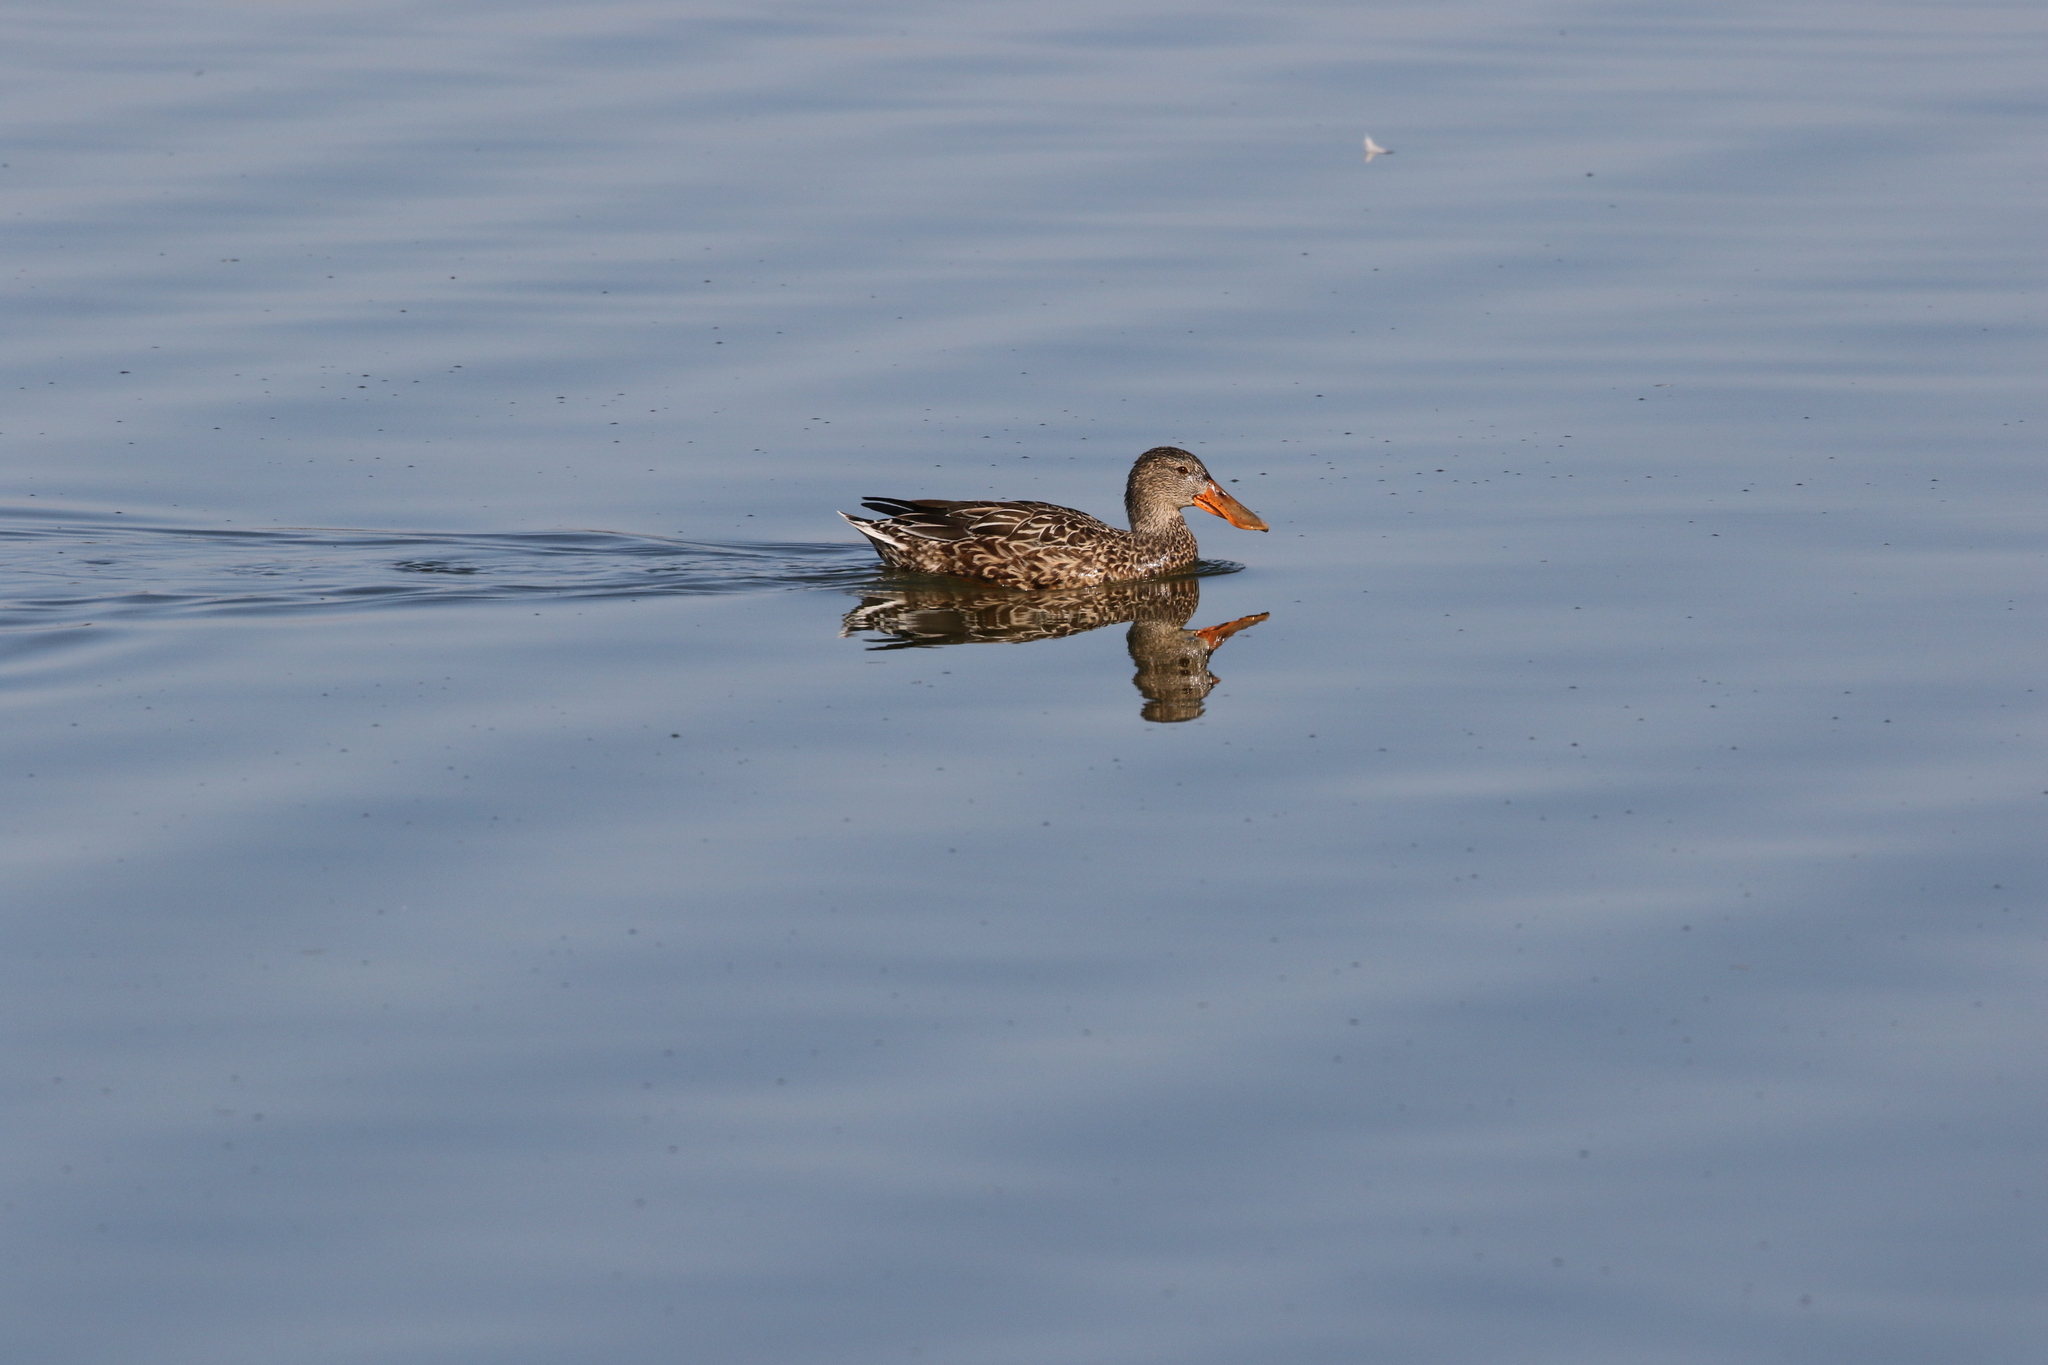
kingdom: Animalia
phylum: Chordata
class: Aves
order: Anseriformes
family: Anatidae
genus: Spatula
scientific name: Spatula clypeata
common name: Northern shoveler
